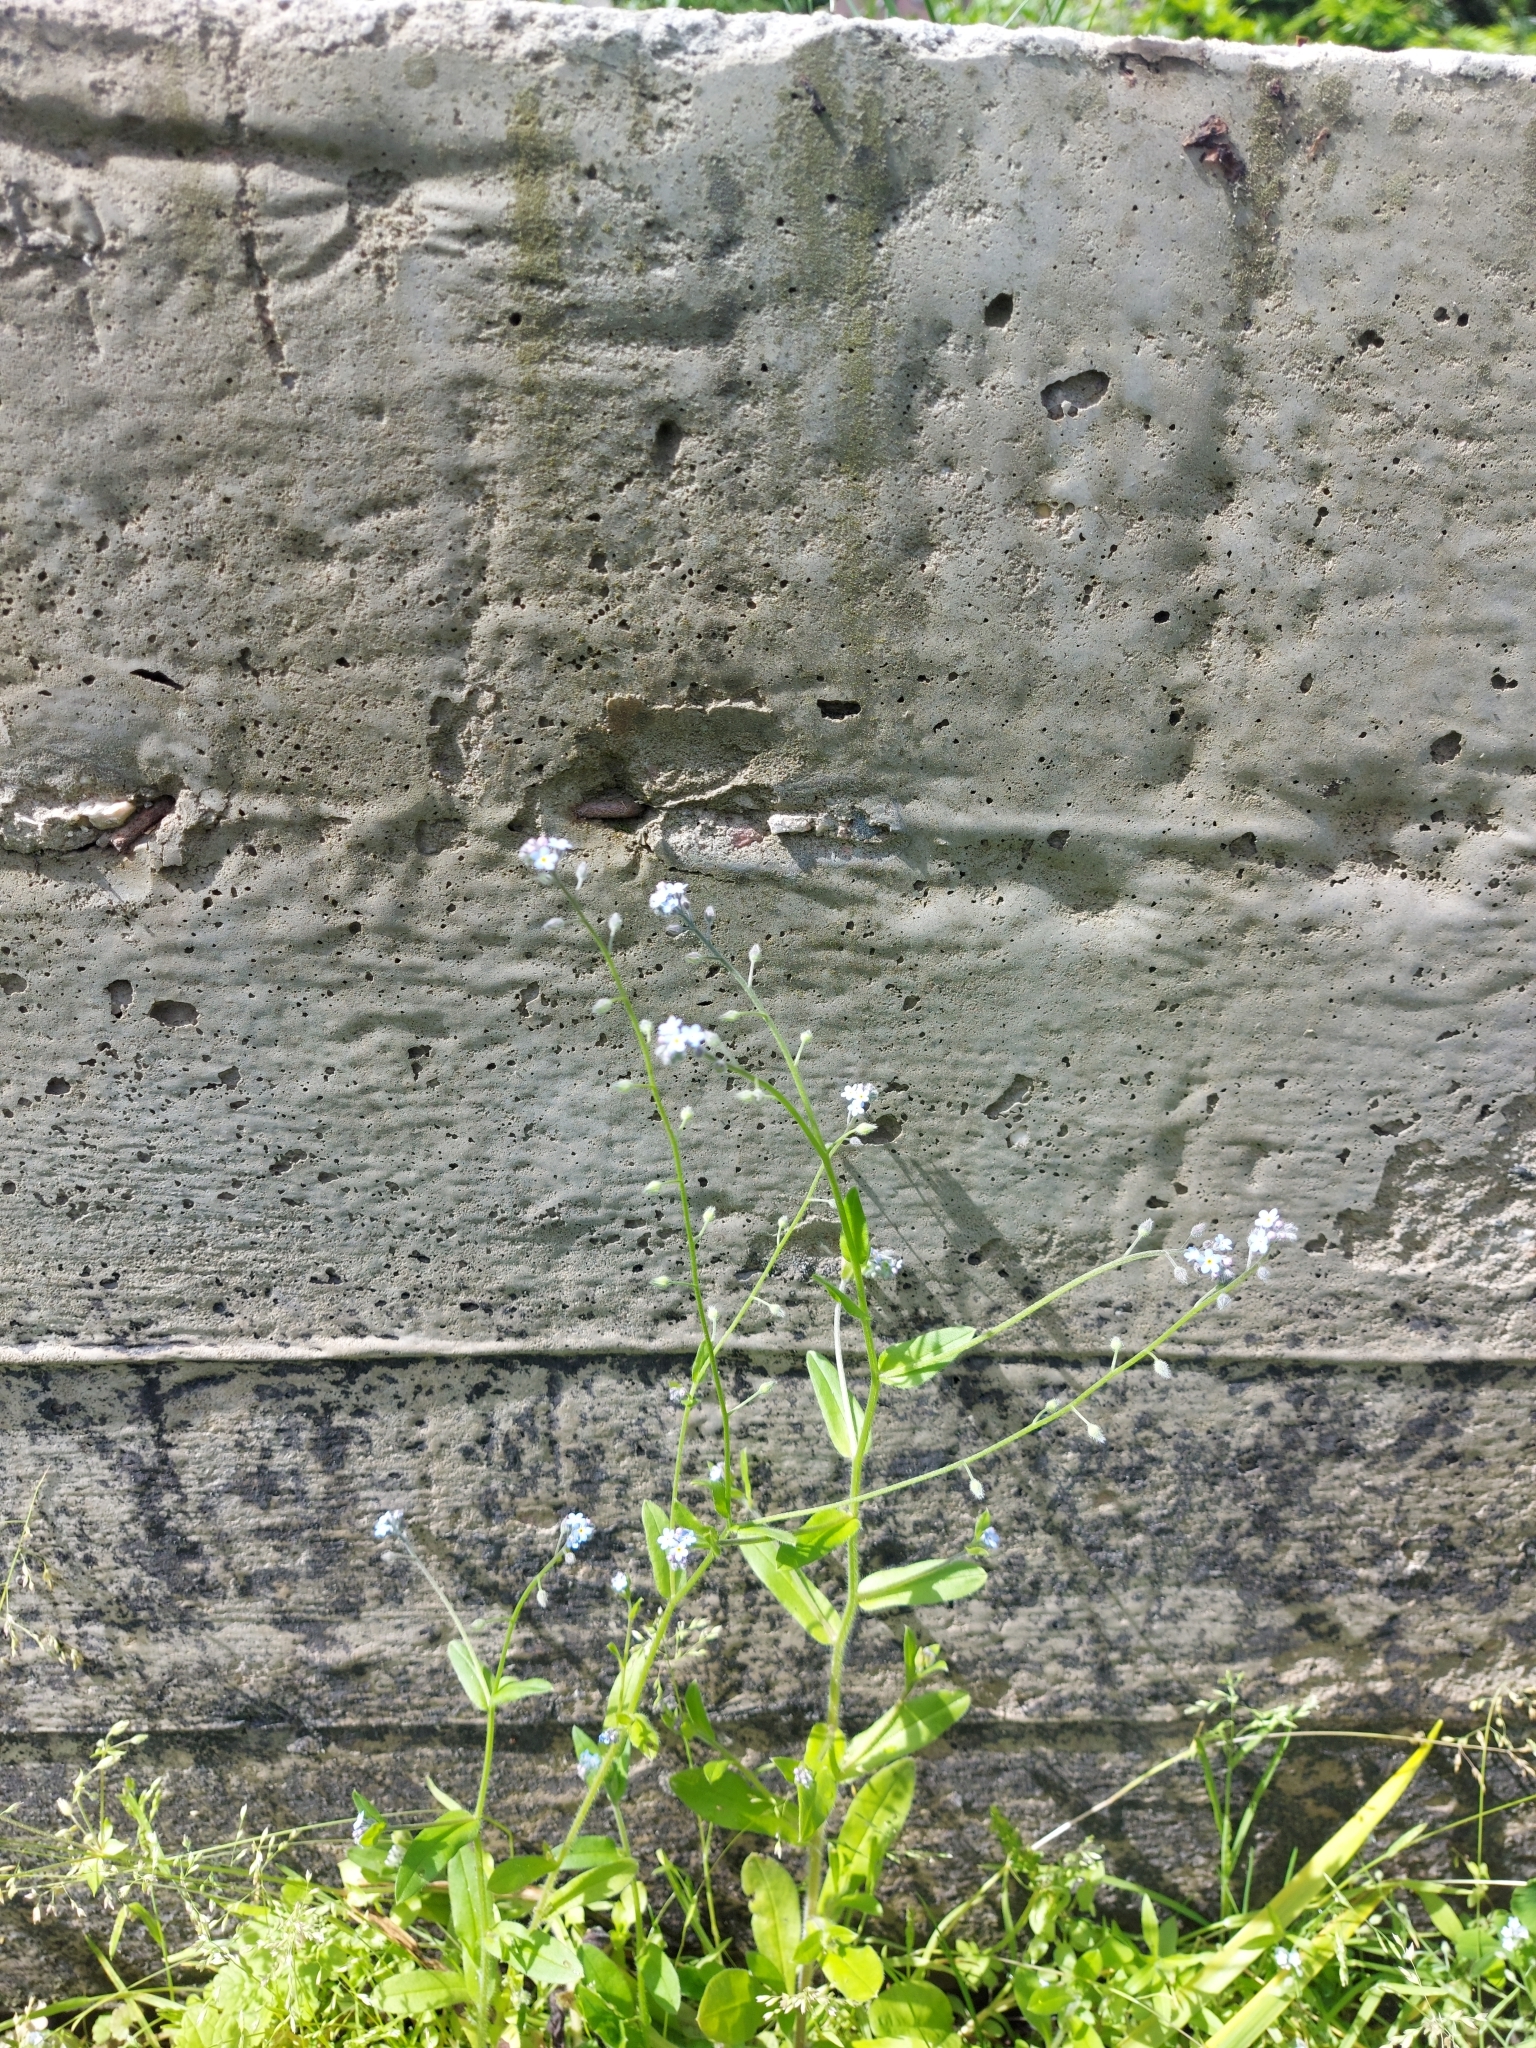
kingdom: Plantae
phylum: Tracheophyta
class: Magnoliopsida
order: Boraginales
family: Boraginaceae
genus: Myosotis
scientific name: Myosotis arvensis
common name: Field forget-me-not
